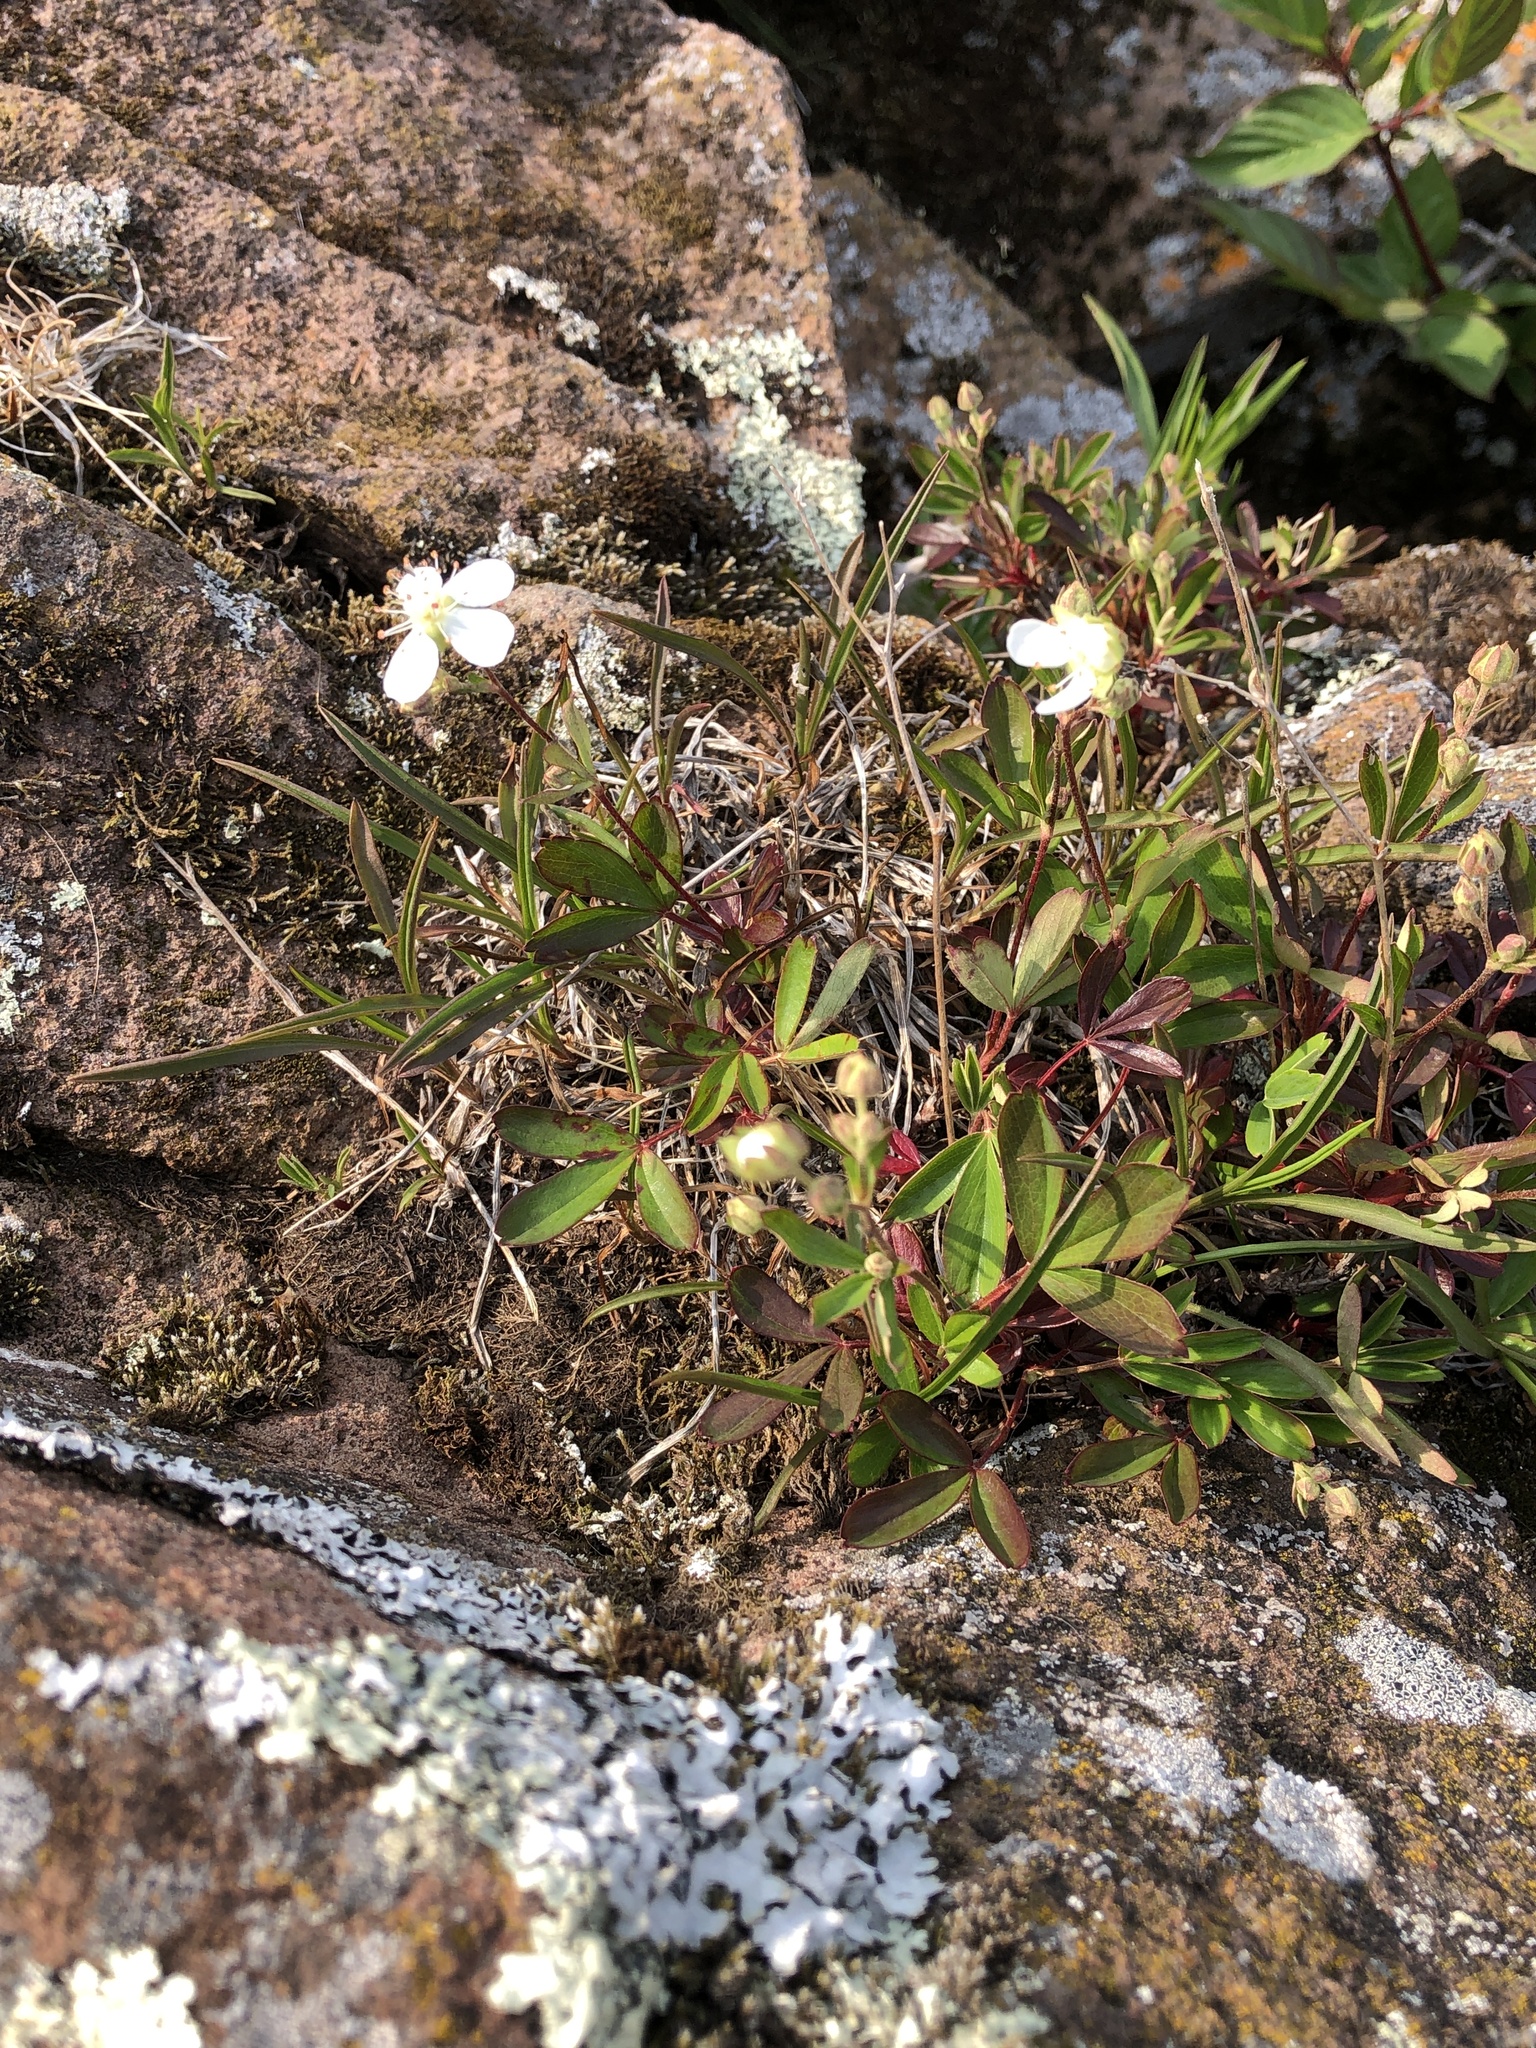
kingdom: Plantae
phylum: Tracheophyta
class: Magnoliopsida
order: Rosales
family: Rosaceae
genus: Sibbaldia
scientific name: Sibbaldia tridentata
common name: Three-toothed cinquefoil
